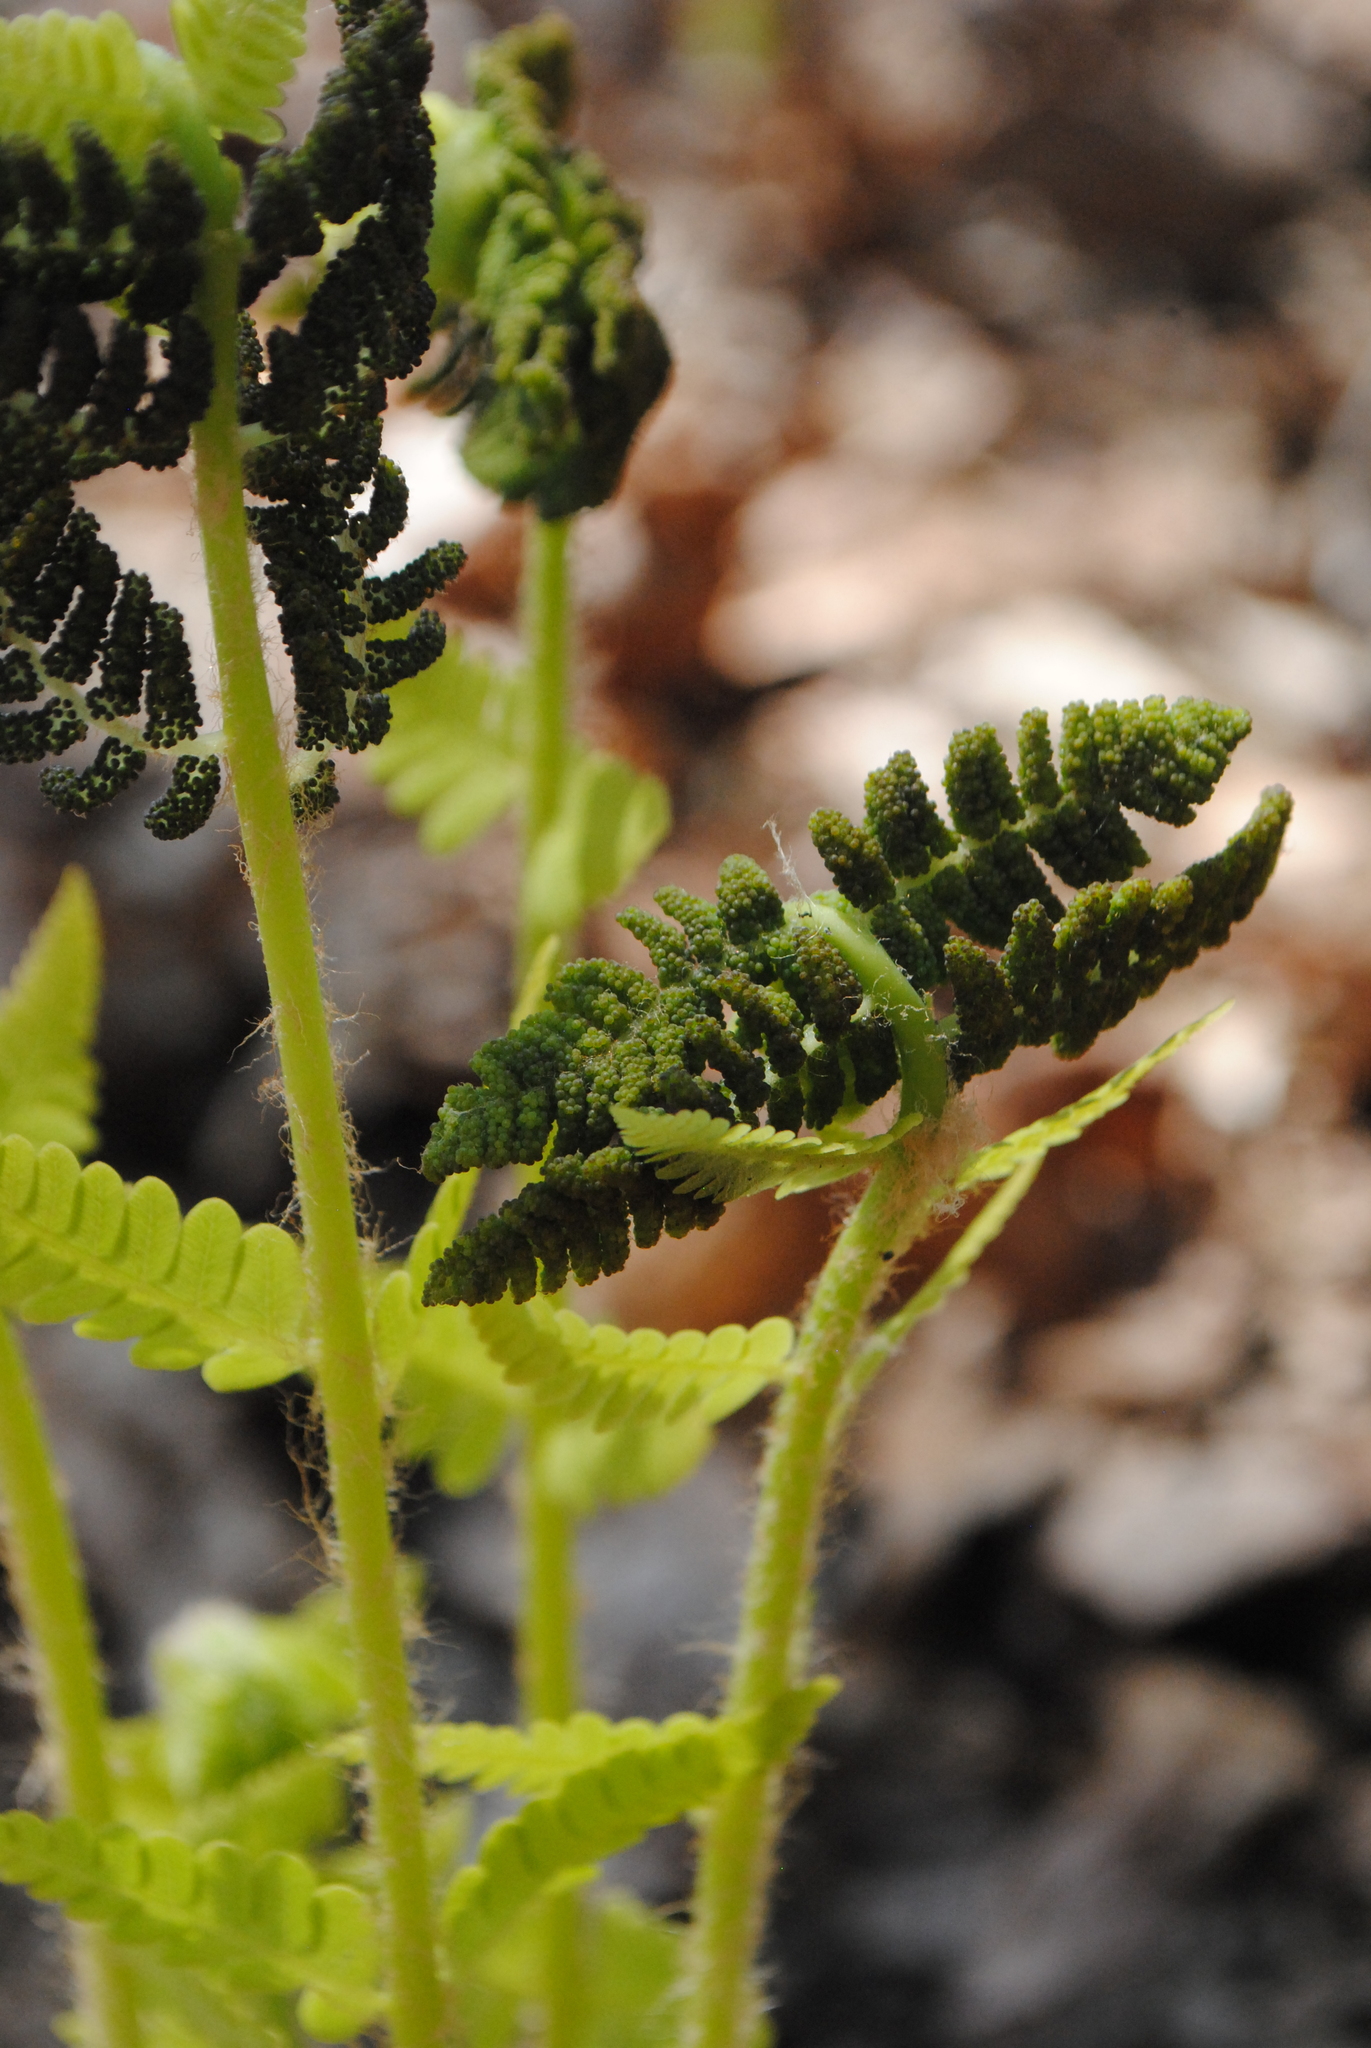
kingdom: Plantae
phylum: Tracheophyta
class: Polypodiopsida
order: Osmundales
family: Osmundaceae
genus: Claytosmunda
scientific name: Claytosmunda claytoniana
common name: Clayton's fern
